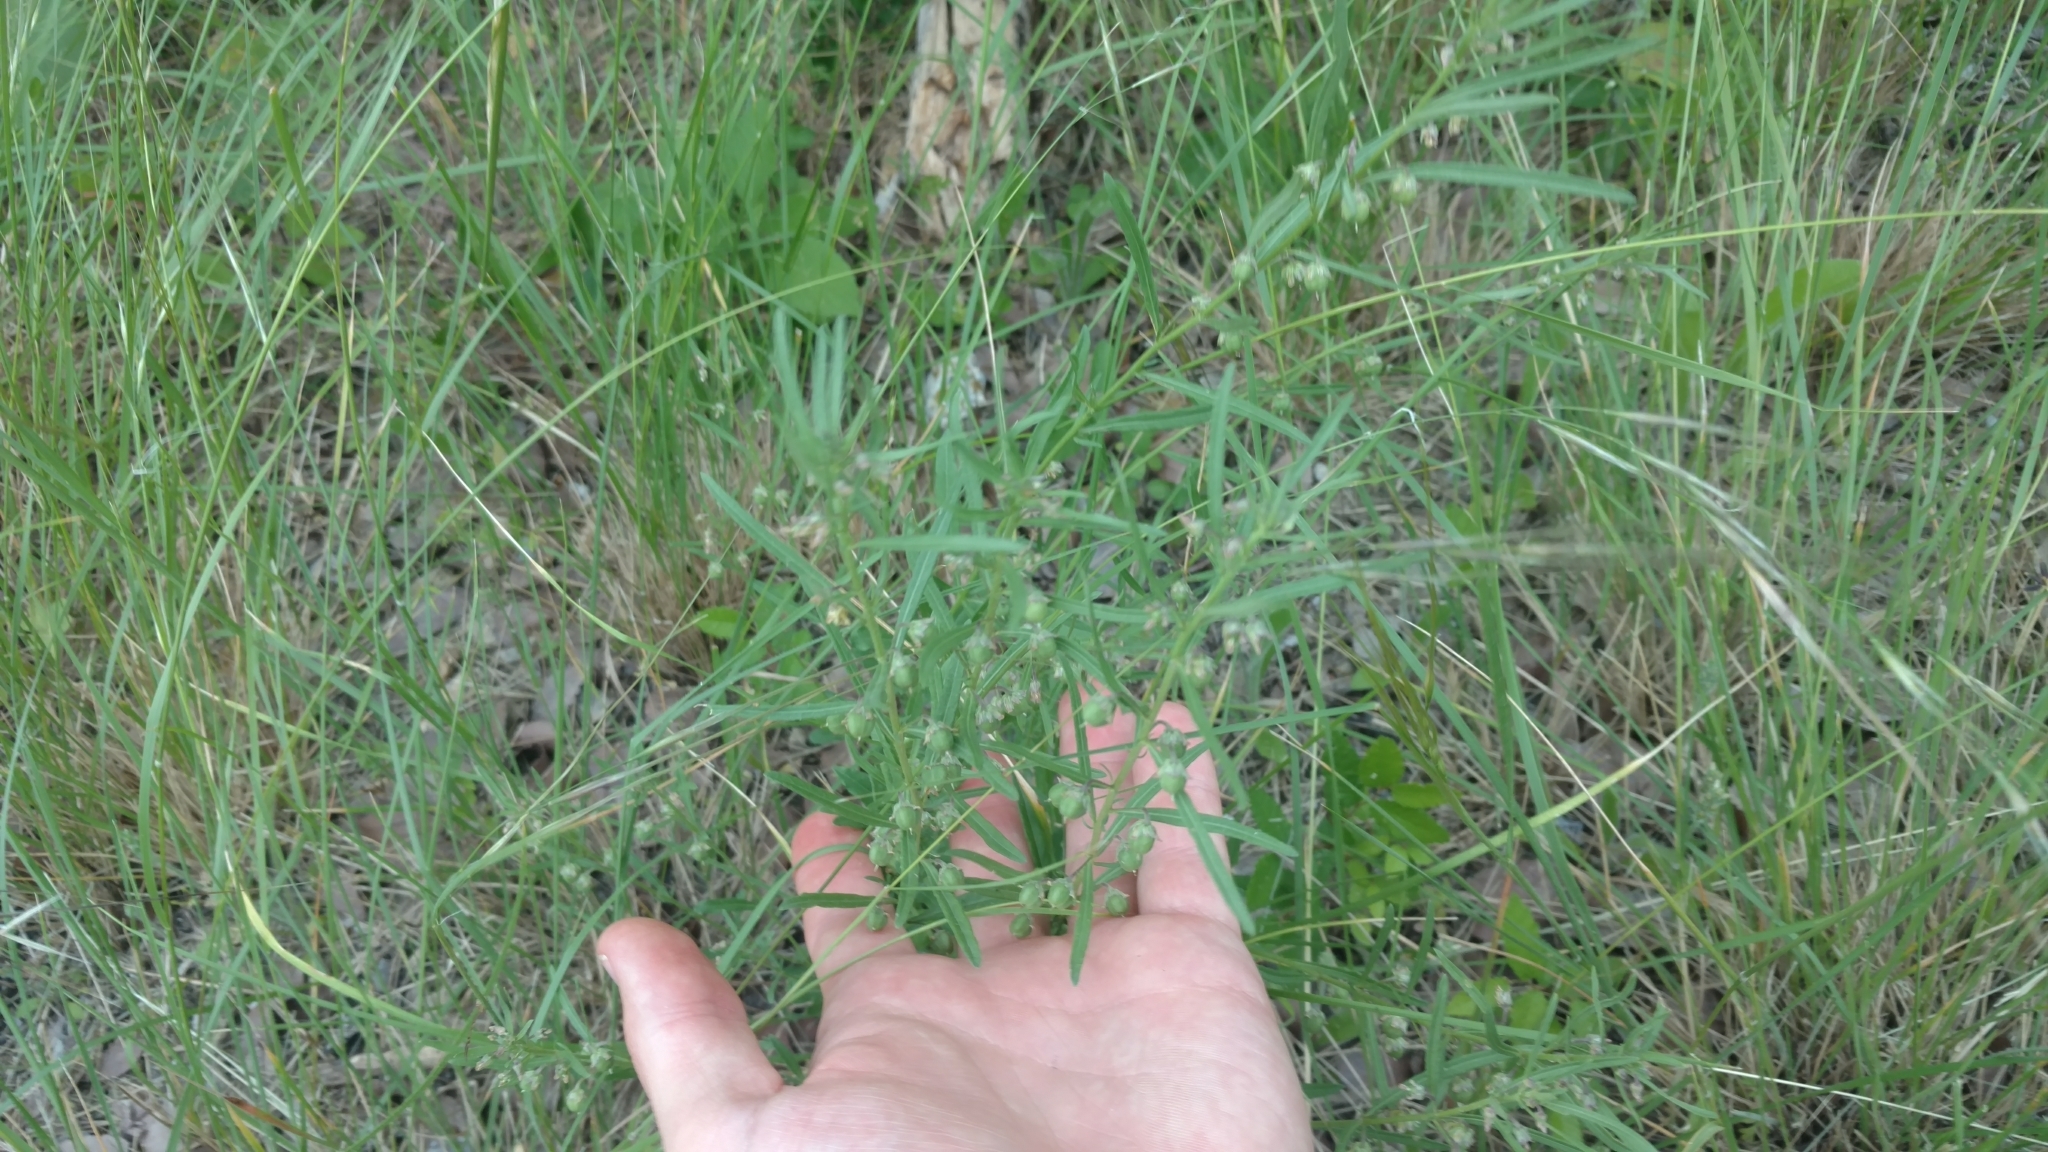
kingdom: Plantae
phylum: Tracheophyta
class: Magnoliopsida
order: Malpighiales
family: Violaceae
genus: Pombalia
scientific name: Pombalia verticillata
